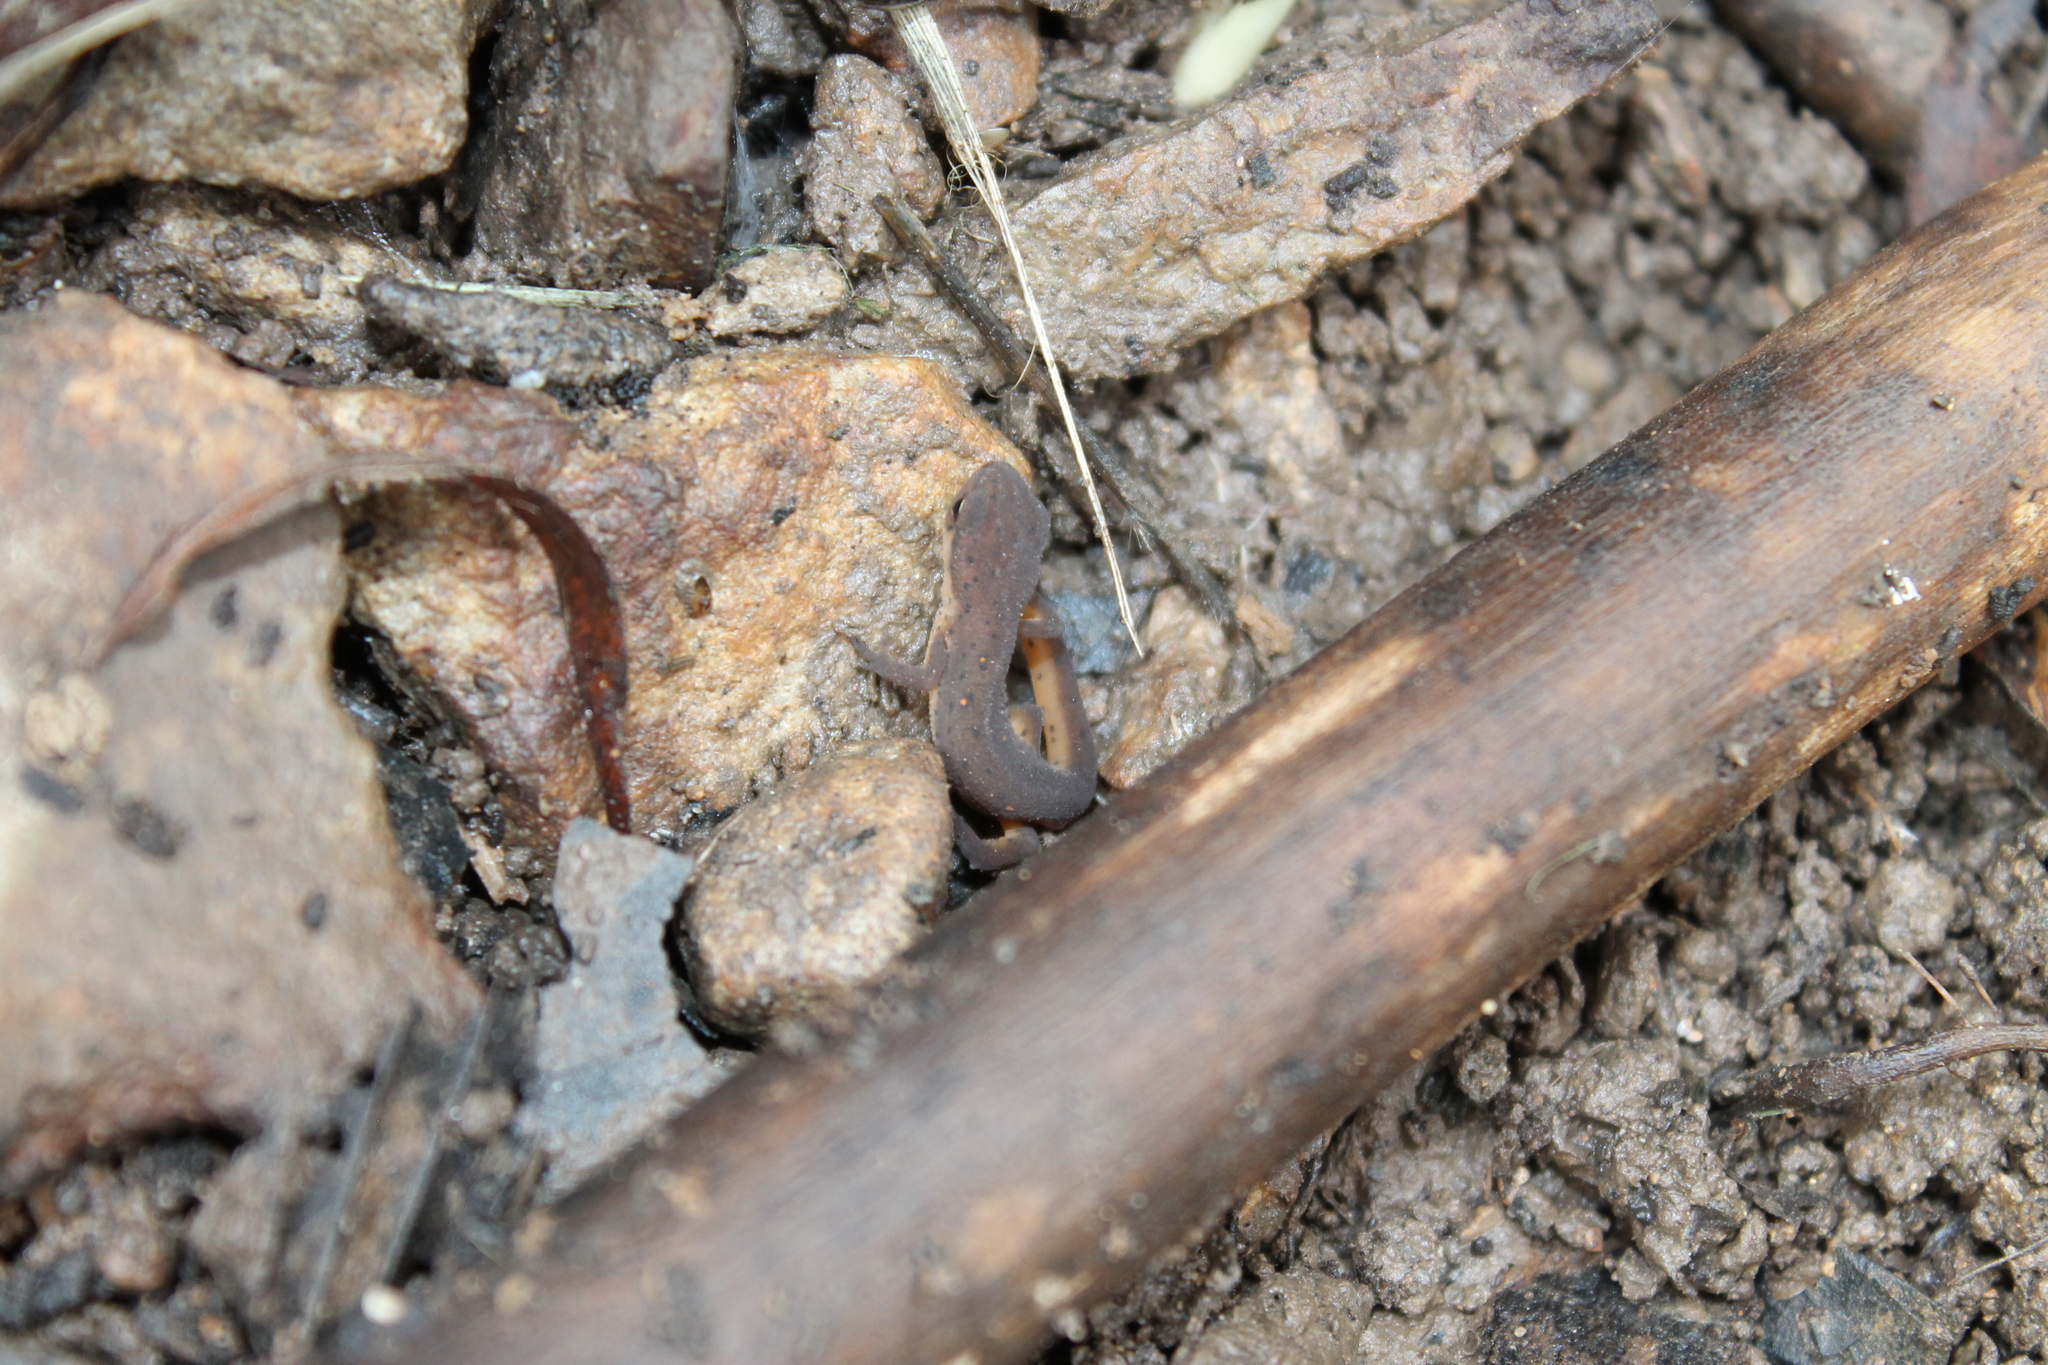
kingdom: Animalia
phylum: Chordata
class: Amphibia
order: Caudata
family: Salamandridae
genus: Notophthalmus
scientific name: Notophthalmus viridescens
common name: Eastern newt
